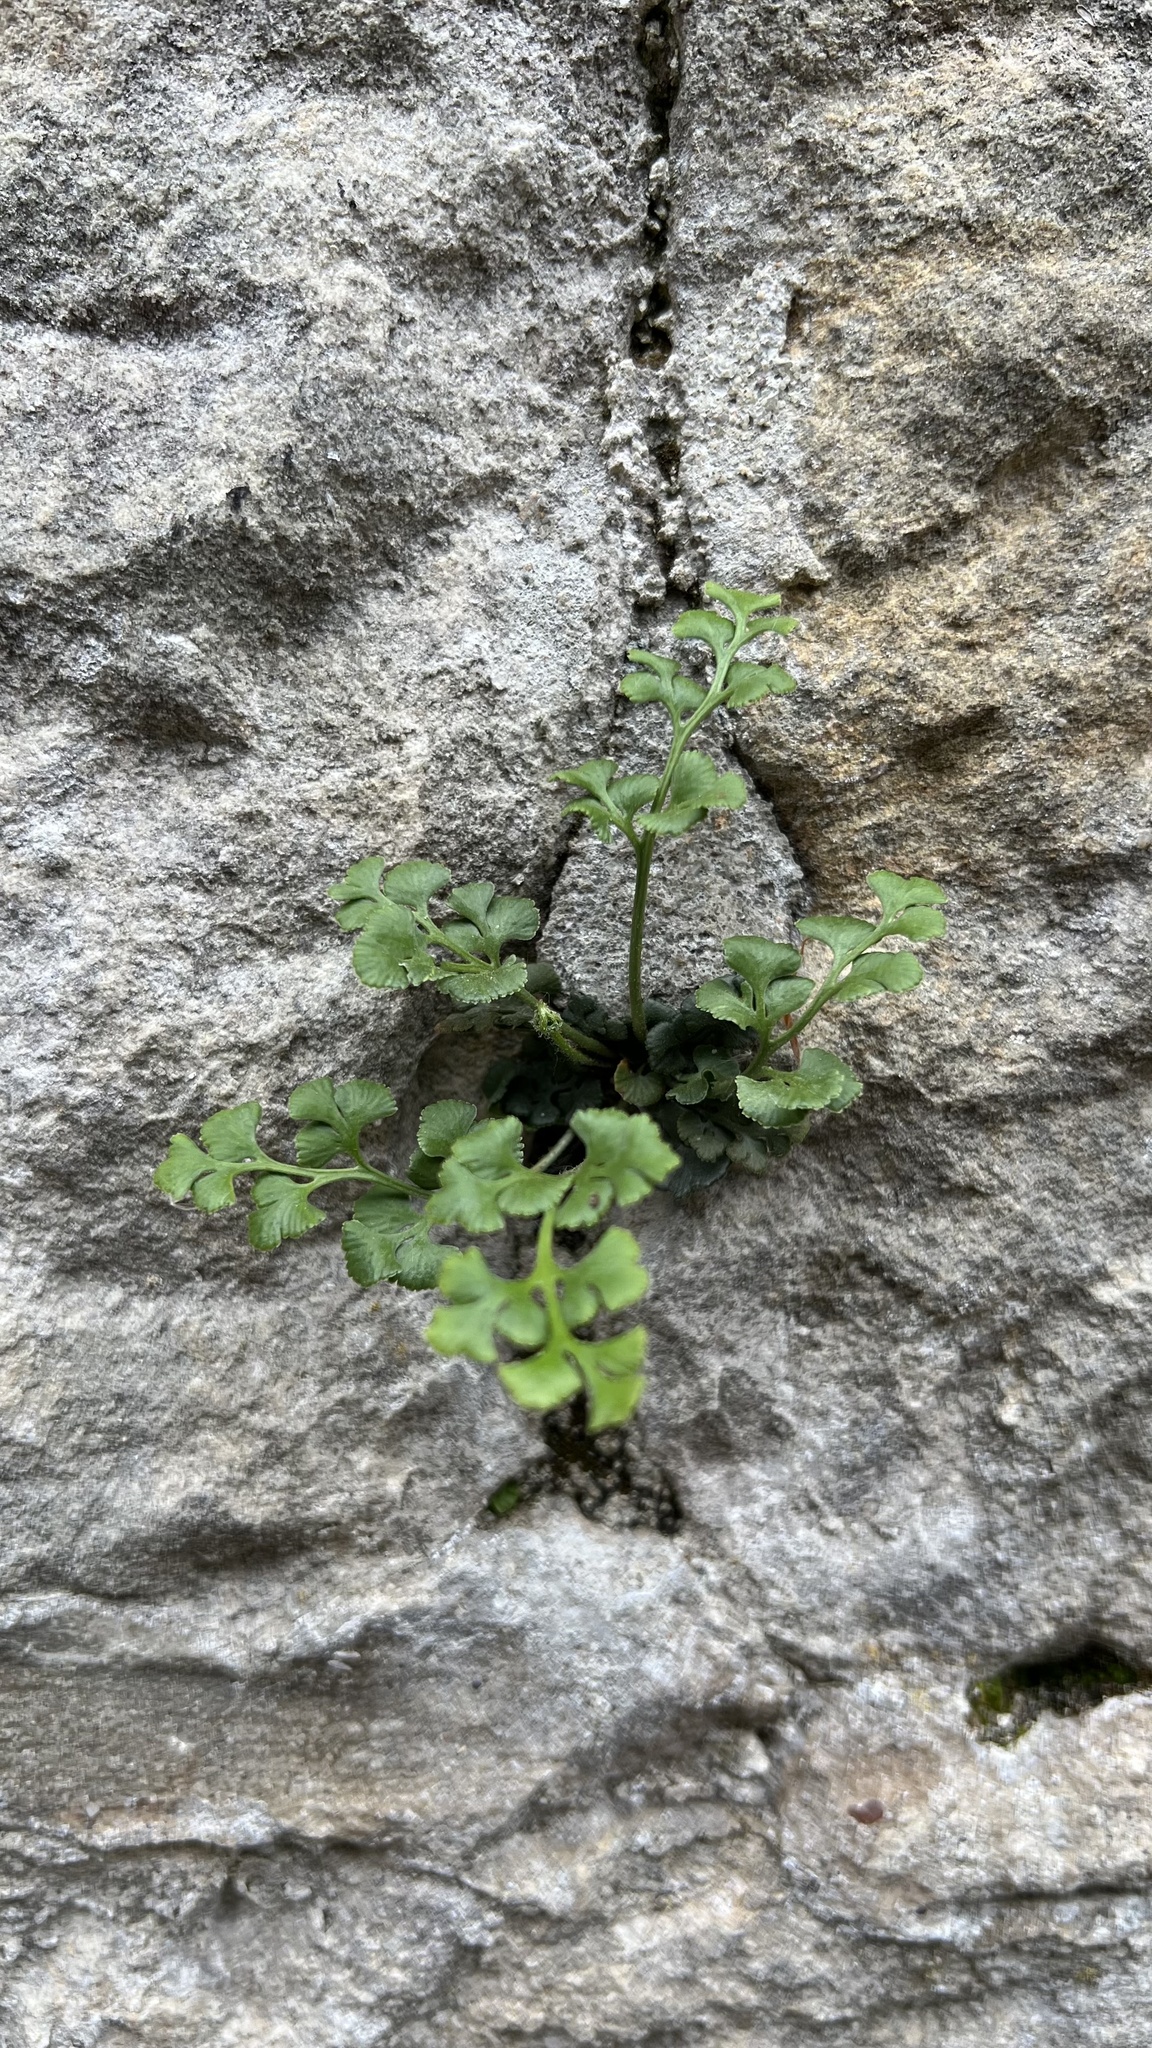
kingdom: Plantae
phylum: Tracheophyta
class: Polypodiopsida
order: Polypodiales
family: Aspleniaceae
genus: Asplenium
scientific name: Asplenium ruta-muraria
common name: Wall-rue
